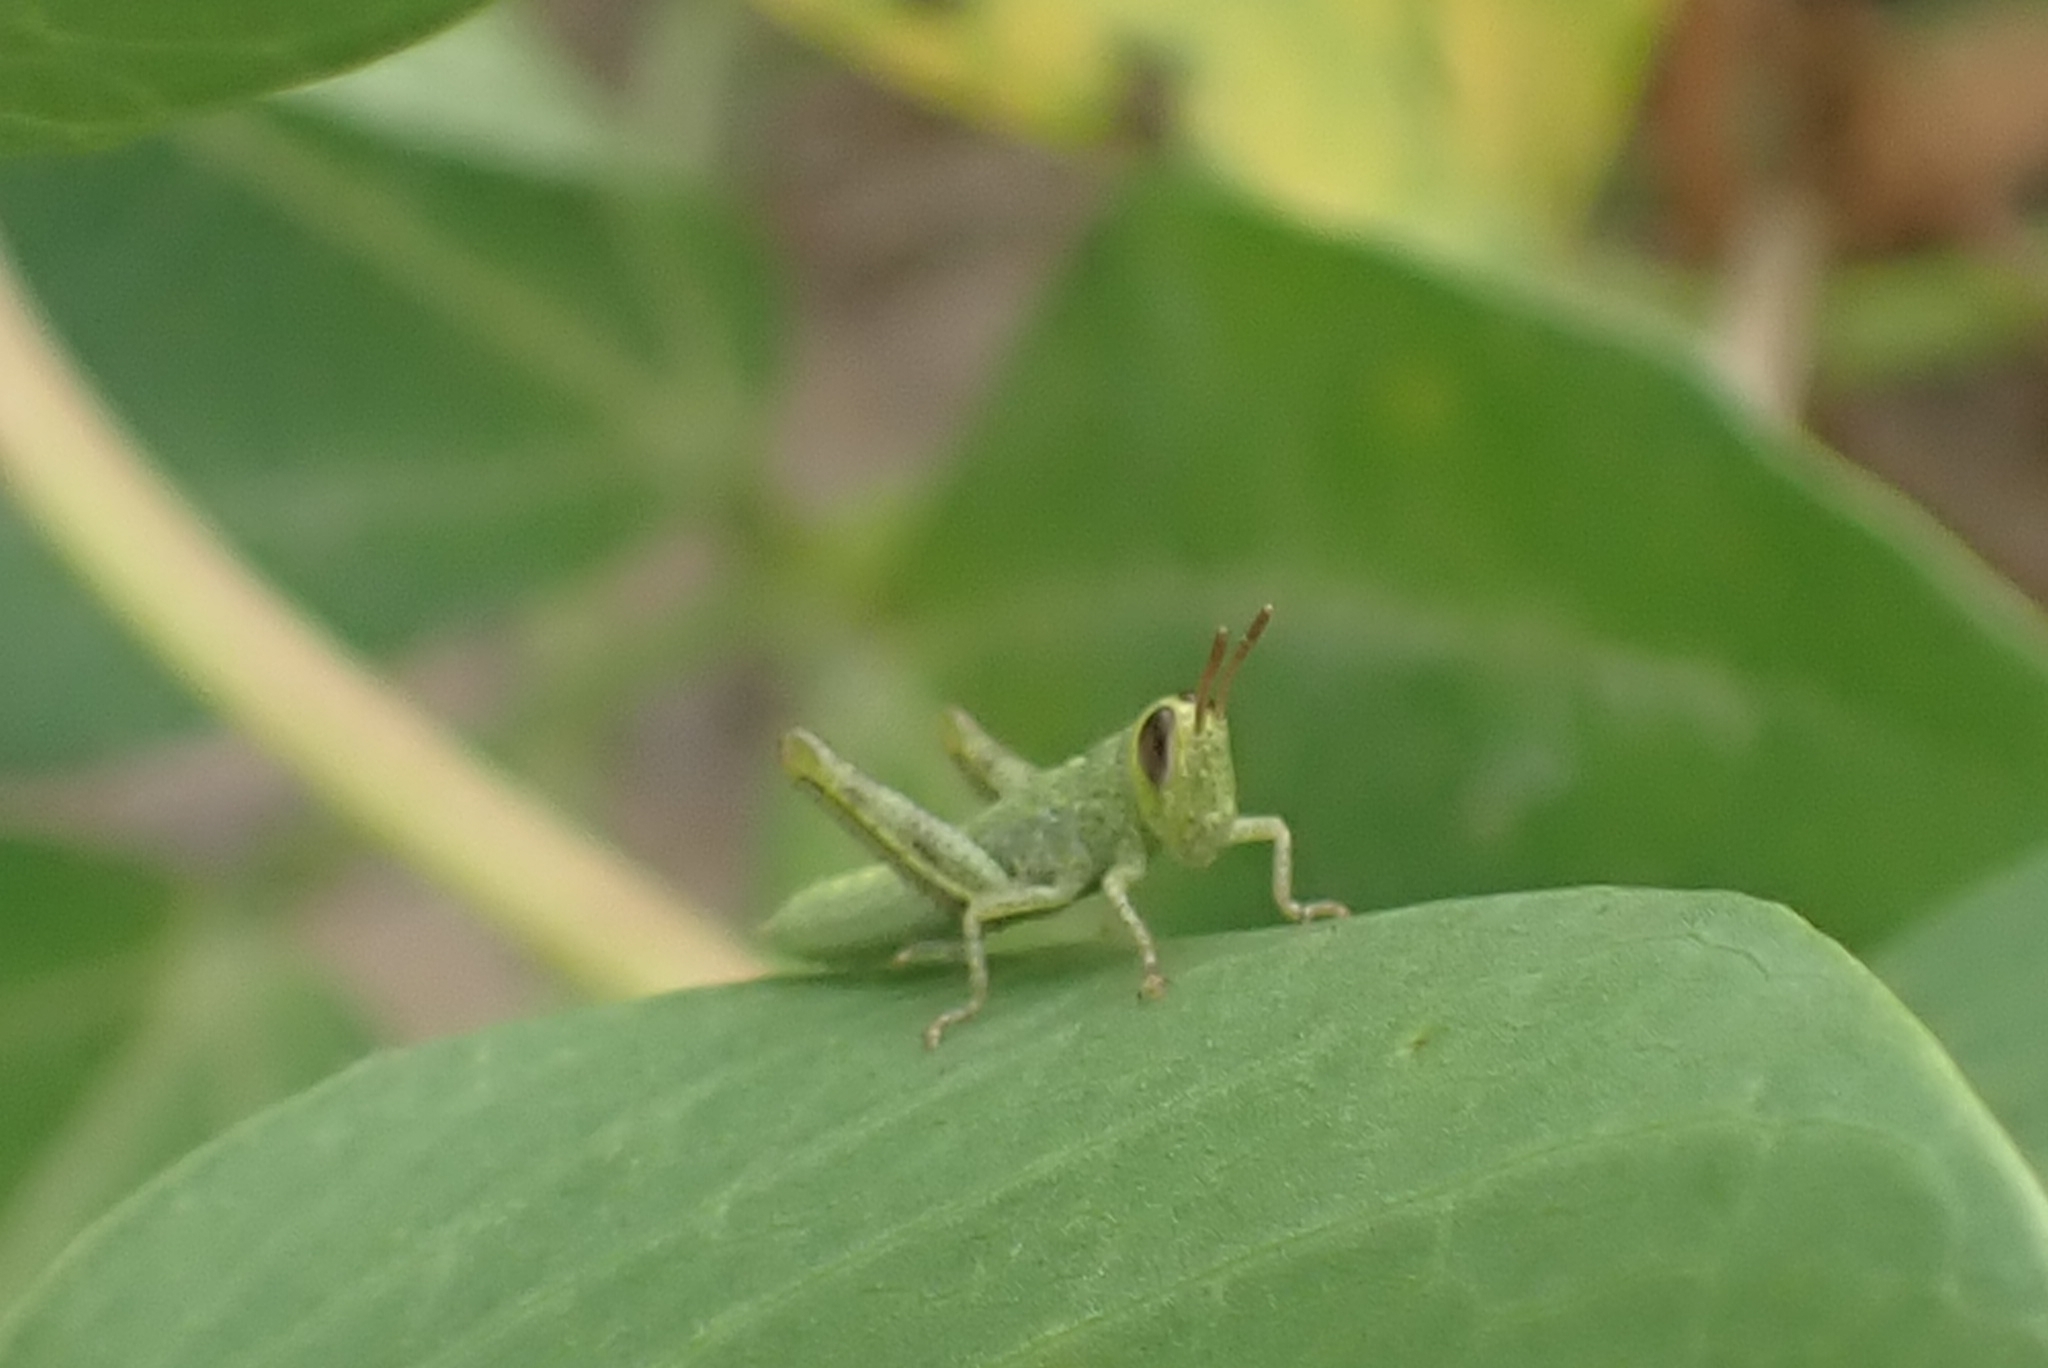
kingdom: Animalia
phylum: Arthropoda
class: Insecta
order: Orthoptera
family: Acrididae
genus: Valanga
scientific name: Valanga nigricornis
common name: Javanese bird grasshopper
